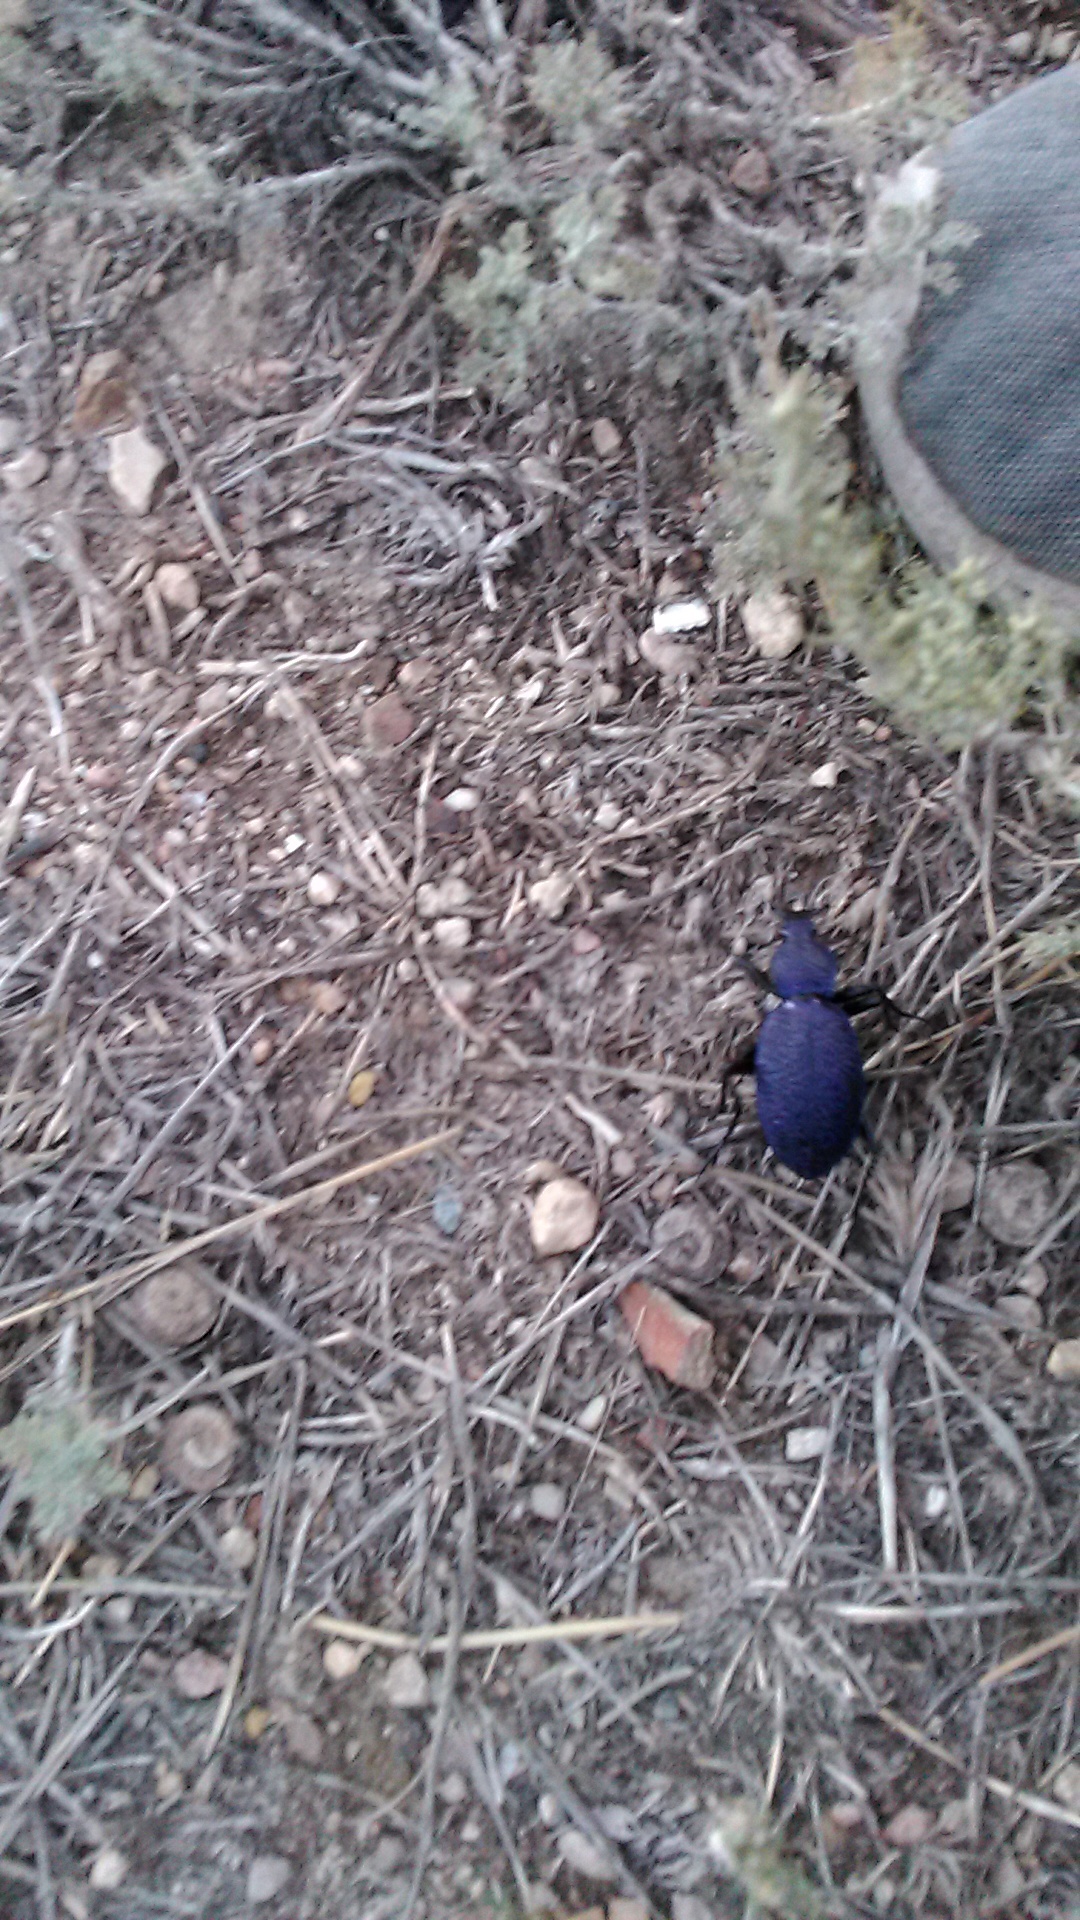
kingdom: Animalia
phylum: Arthropoda
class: Insecta
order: Coleoptera
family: Carabidae
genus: Carabus
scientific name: Carabus scabrosus
